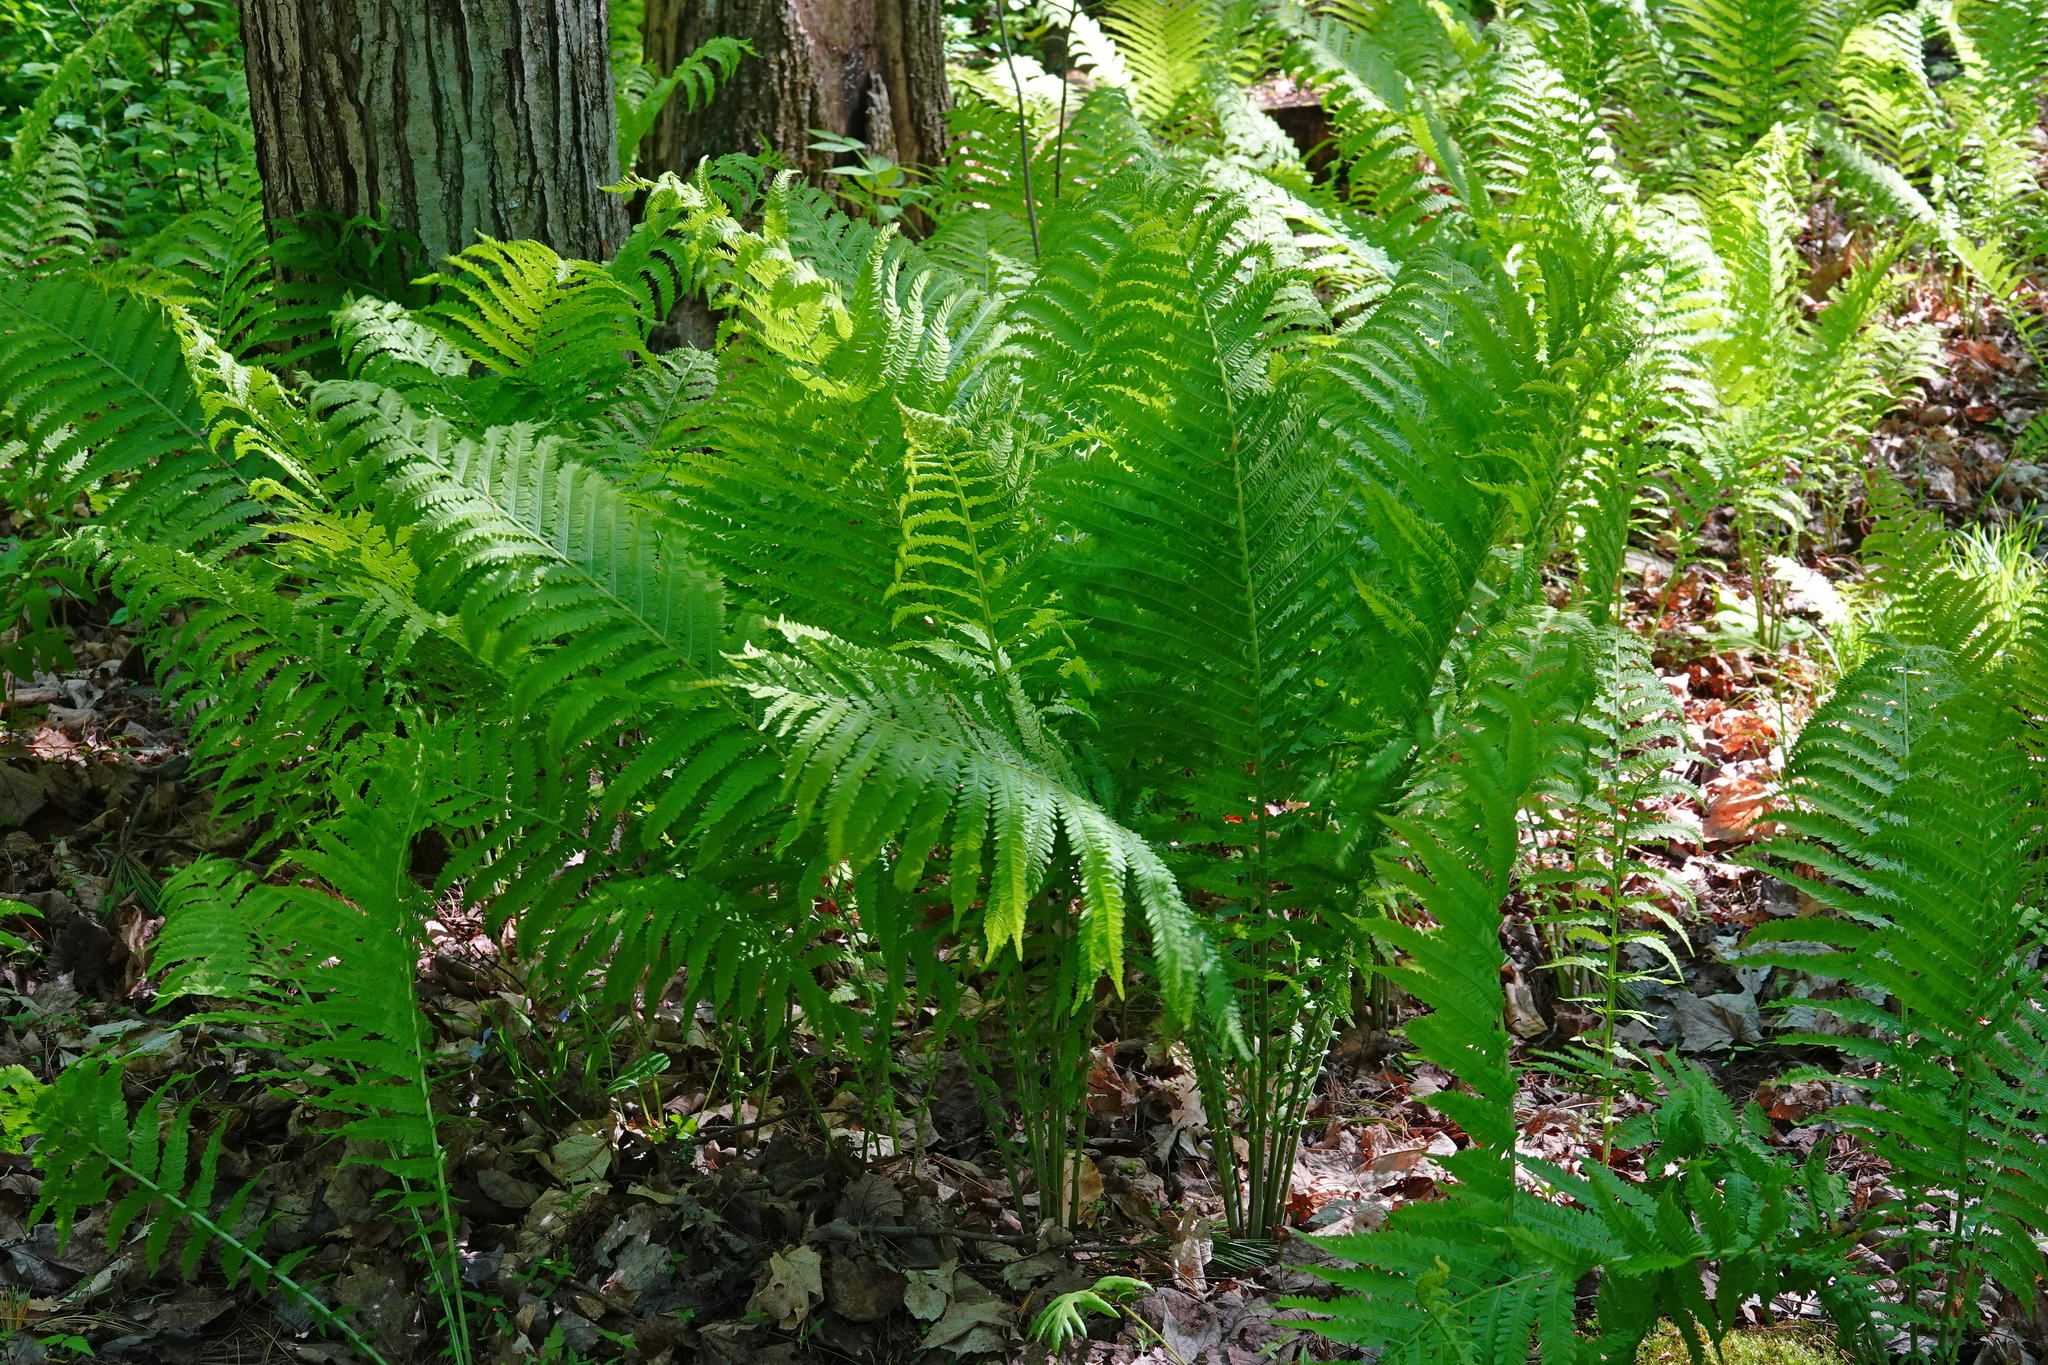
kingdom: Plantae
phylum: Tracheophyta
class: Polypodiopsida
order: Polypodiales
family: Onocleaceae
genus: Matteuccia
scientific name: Matteuccia struthiopteris
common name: Ostrich fern
